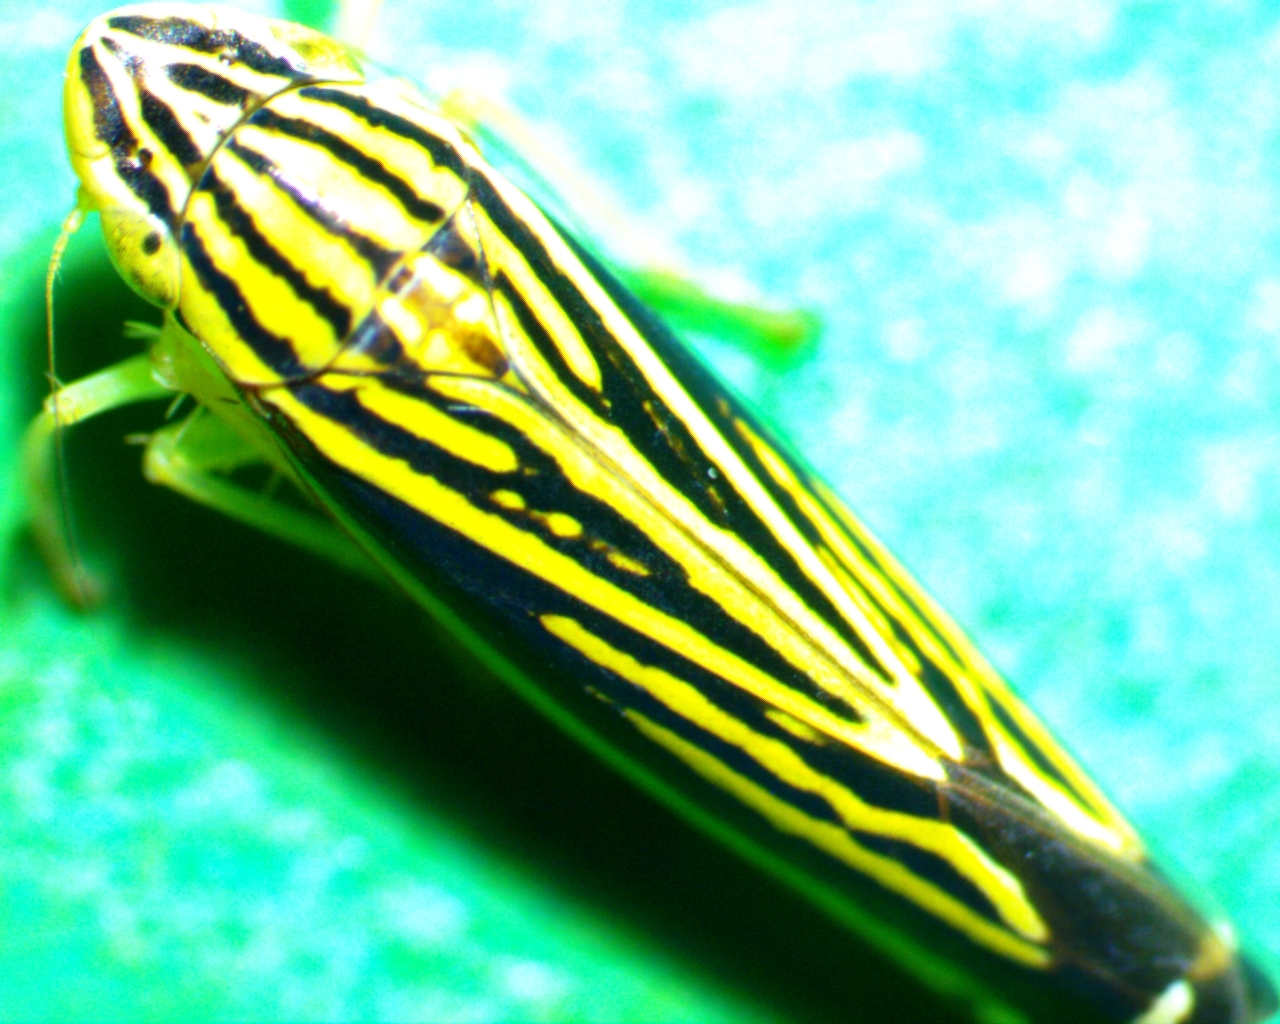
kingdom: Animalia
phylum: Arthropoda
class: Insecta
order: Hemiptera
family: Cicadellidae
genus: Sibovia
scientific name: Sibovia occatoria
